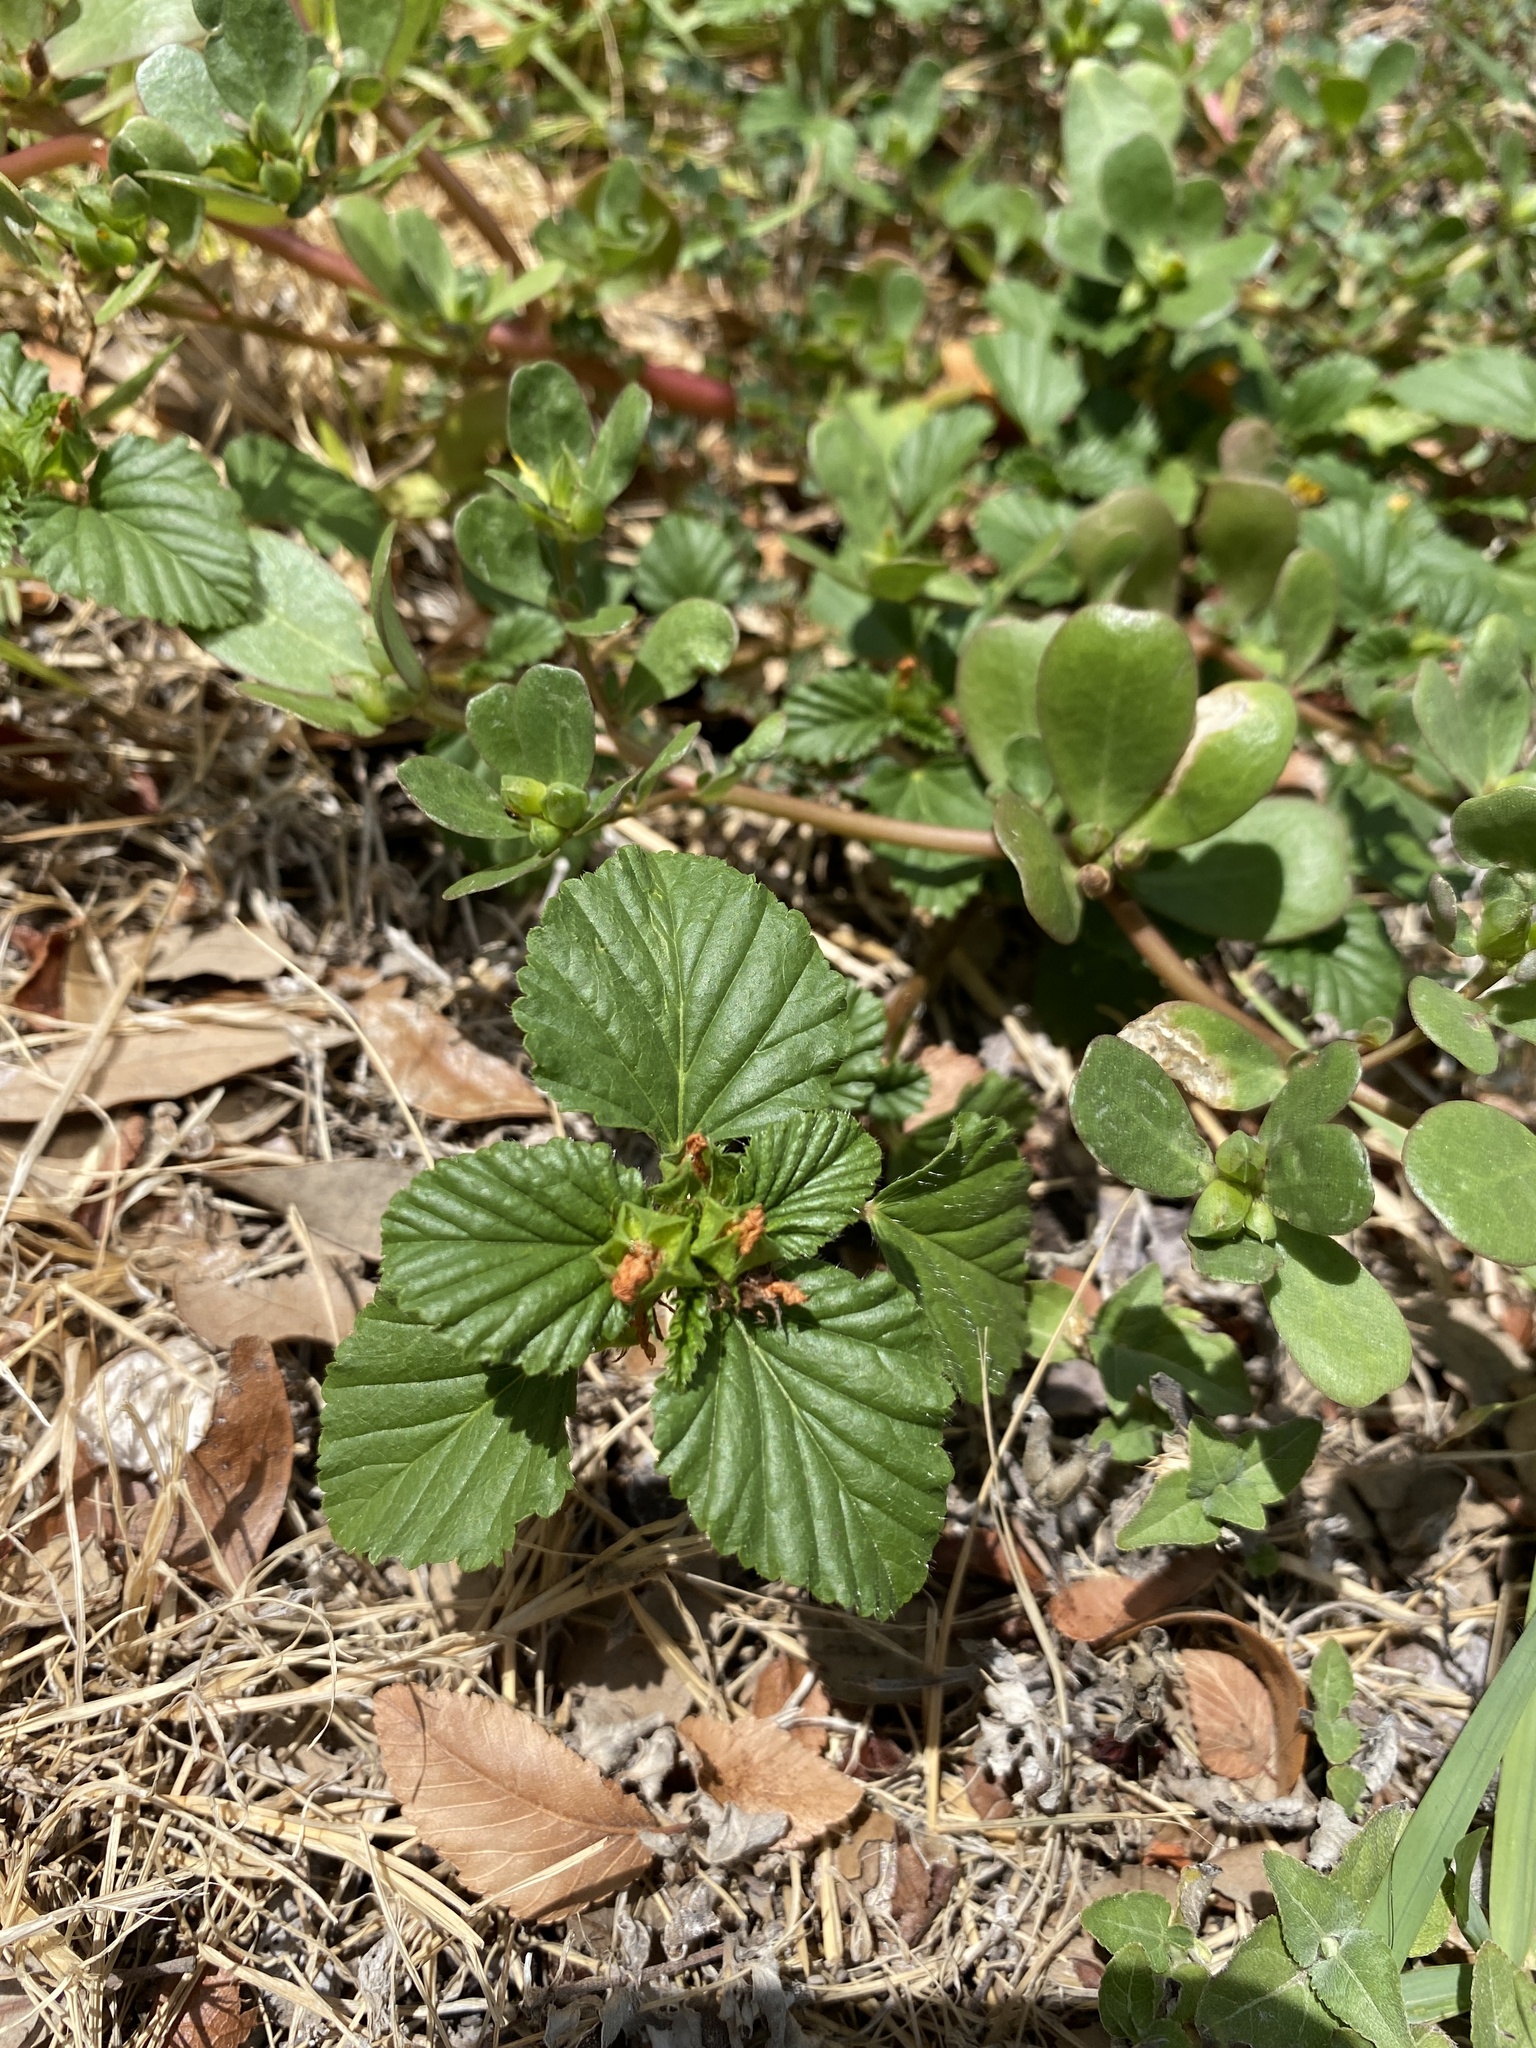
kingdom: Plantae
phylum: Tracheophyta
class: Magnoliopsida
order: Malvales
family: Malvaceae
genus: Malvastrum
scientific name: Malvastrum coromandelianum
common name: Threelobe false mallow
